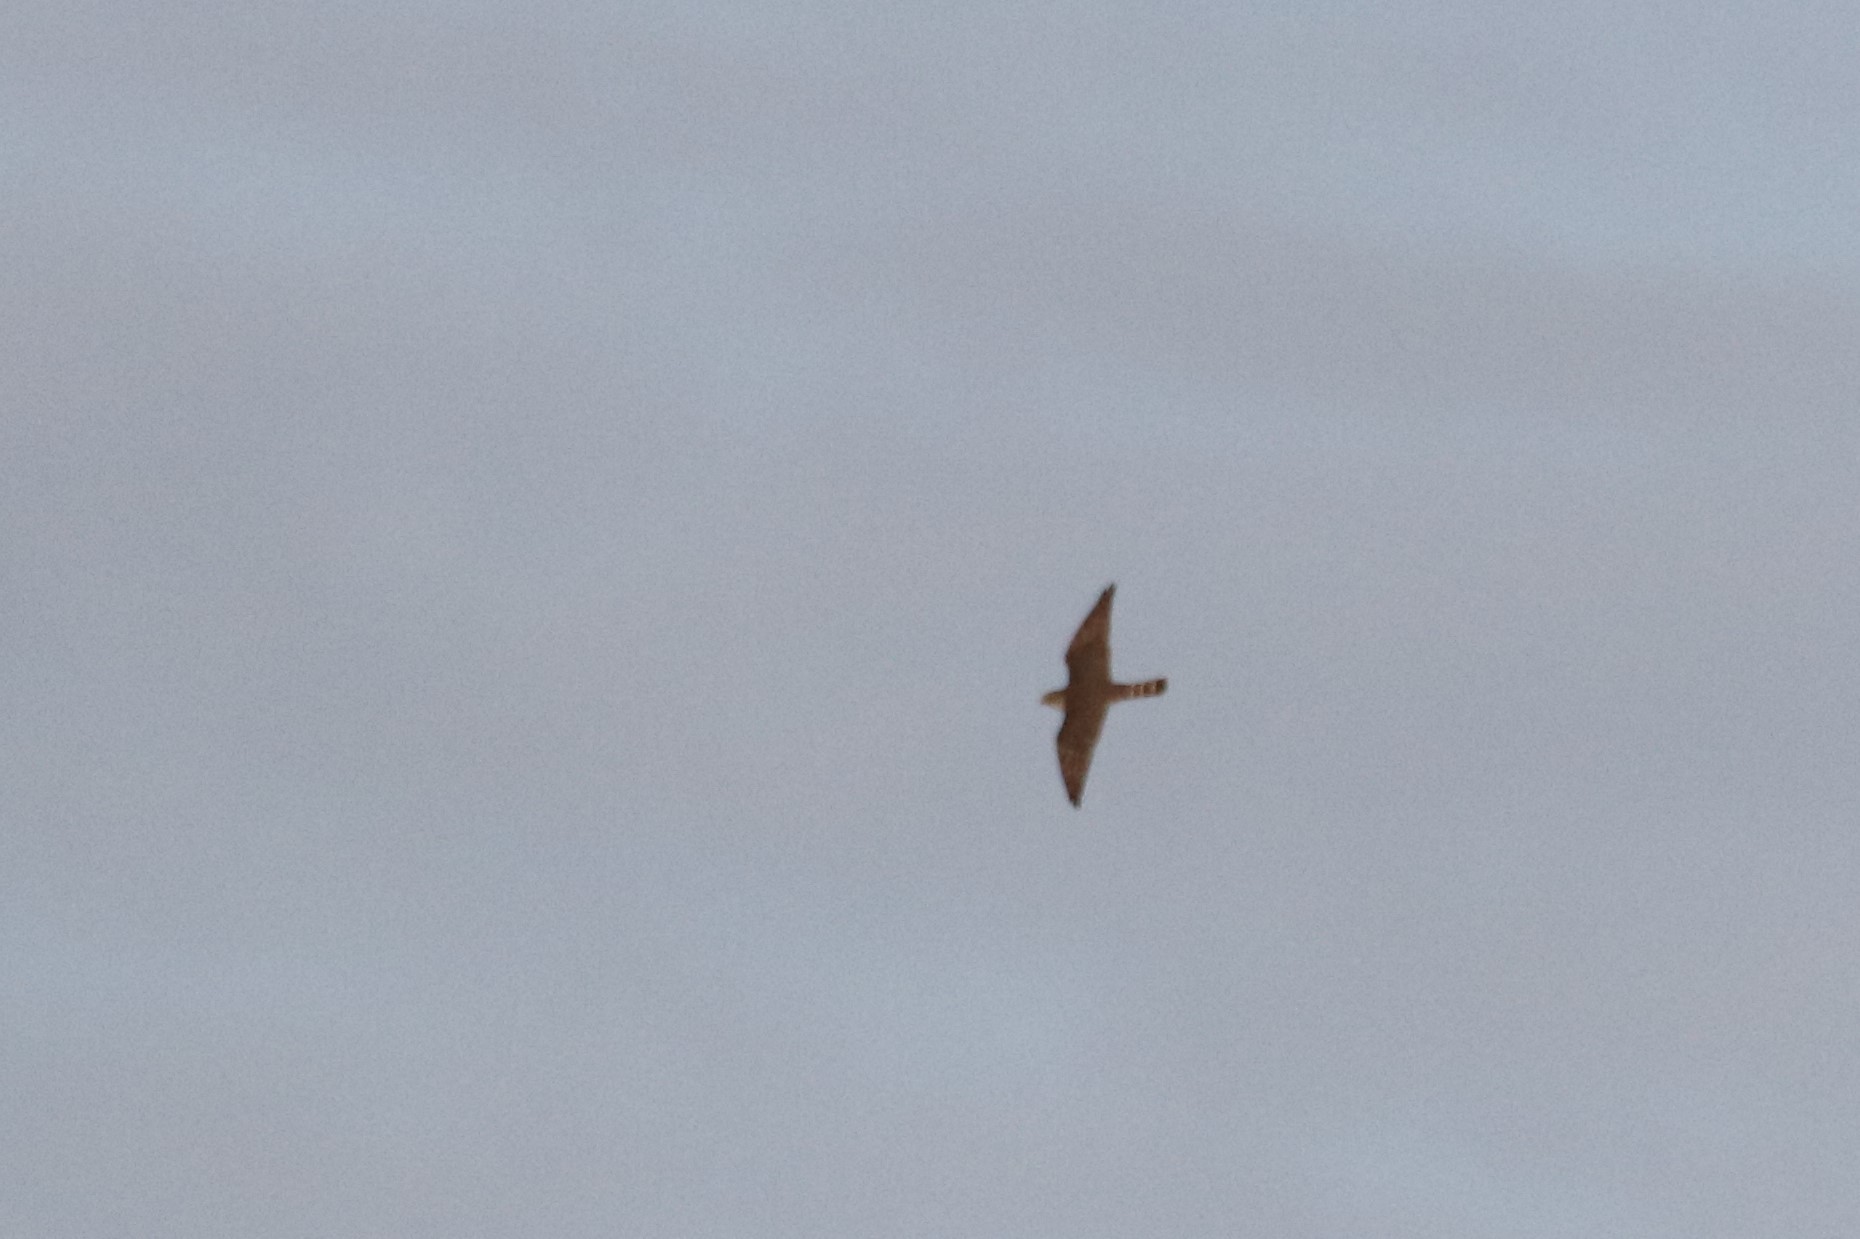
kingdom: Animalia
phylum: Chordata
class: Aves
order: Falconiformes
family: Falconidae
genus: Falco
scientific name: Falco columbarius
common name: Merlin
